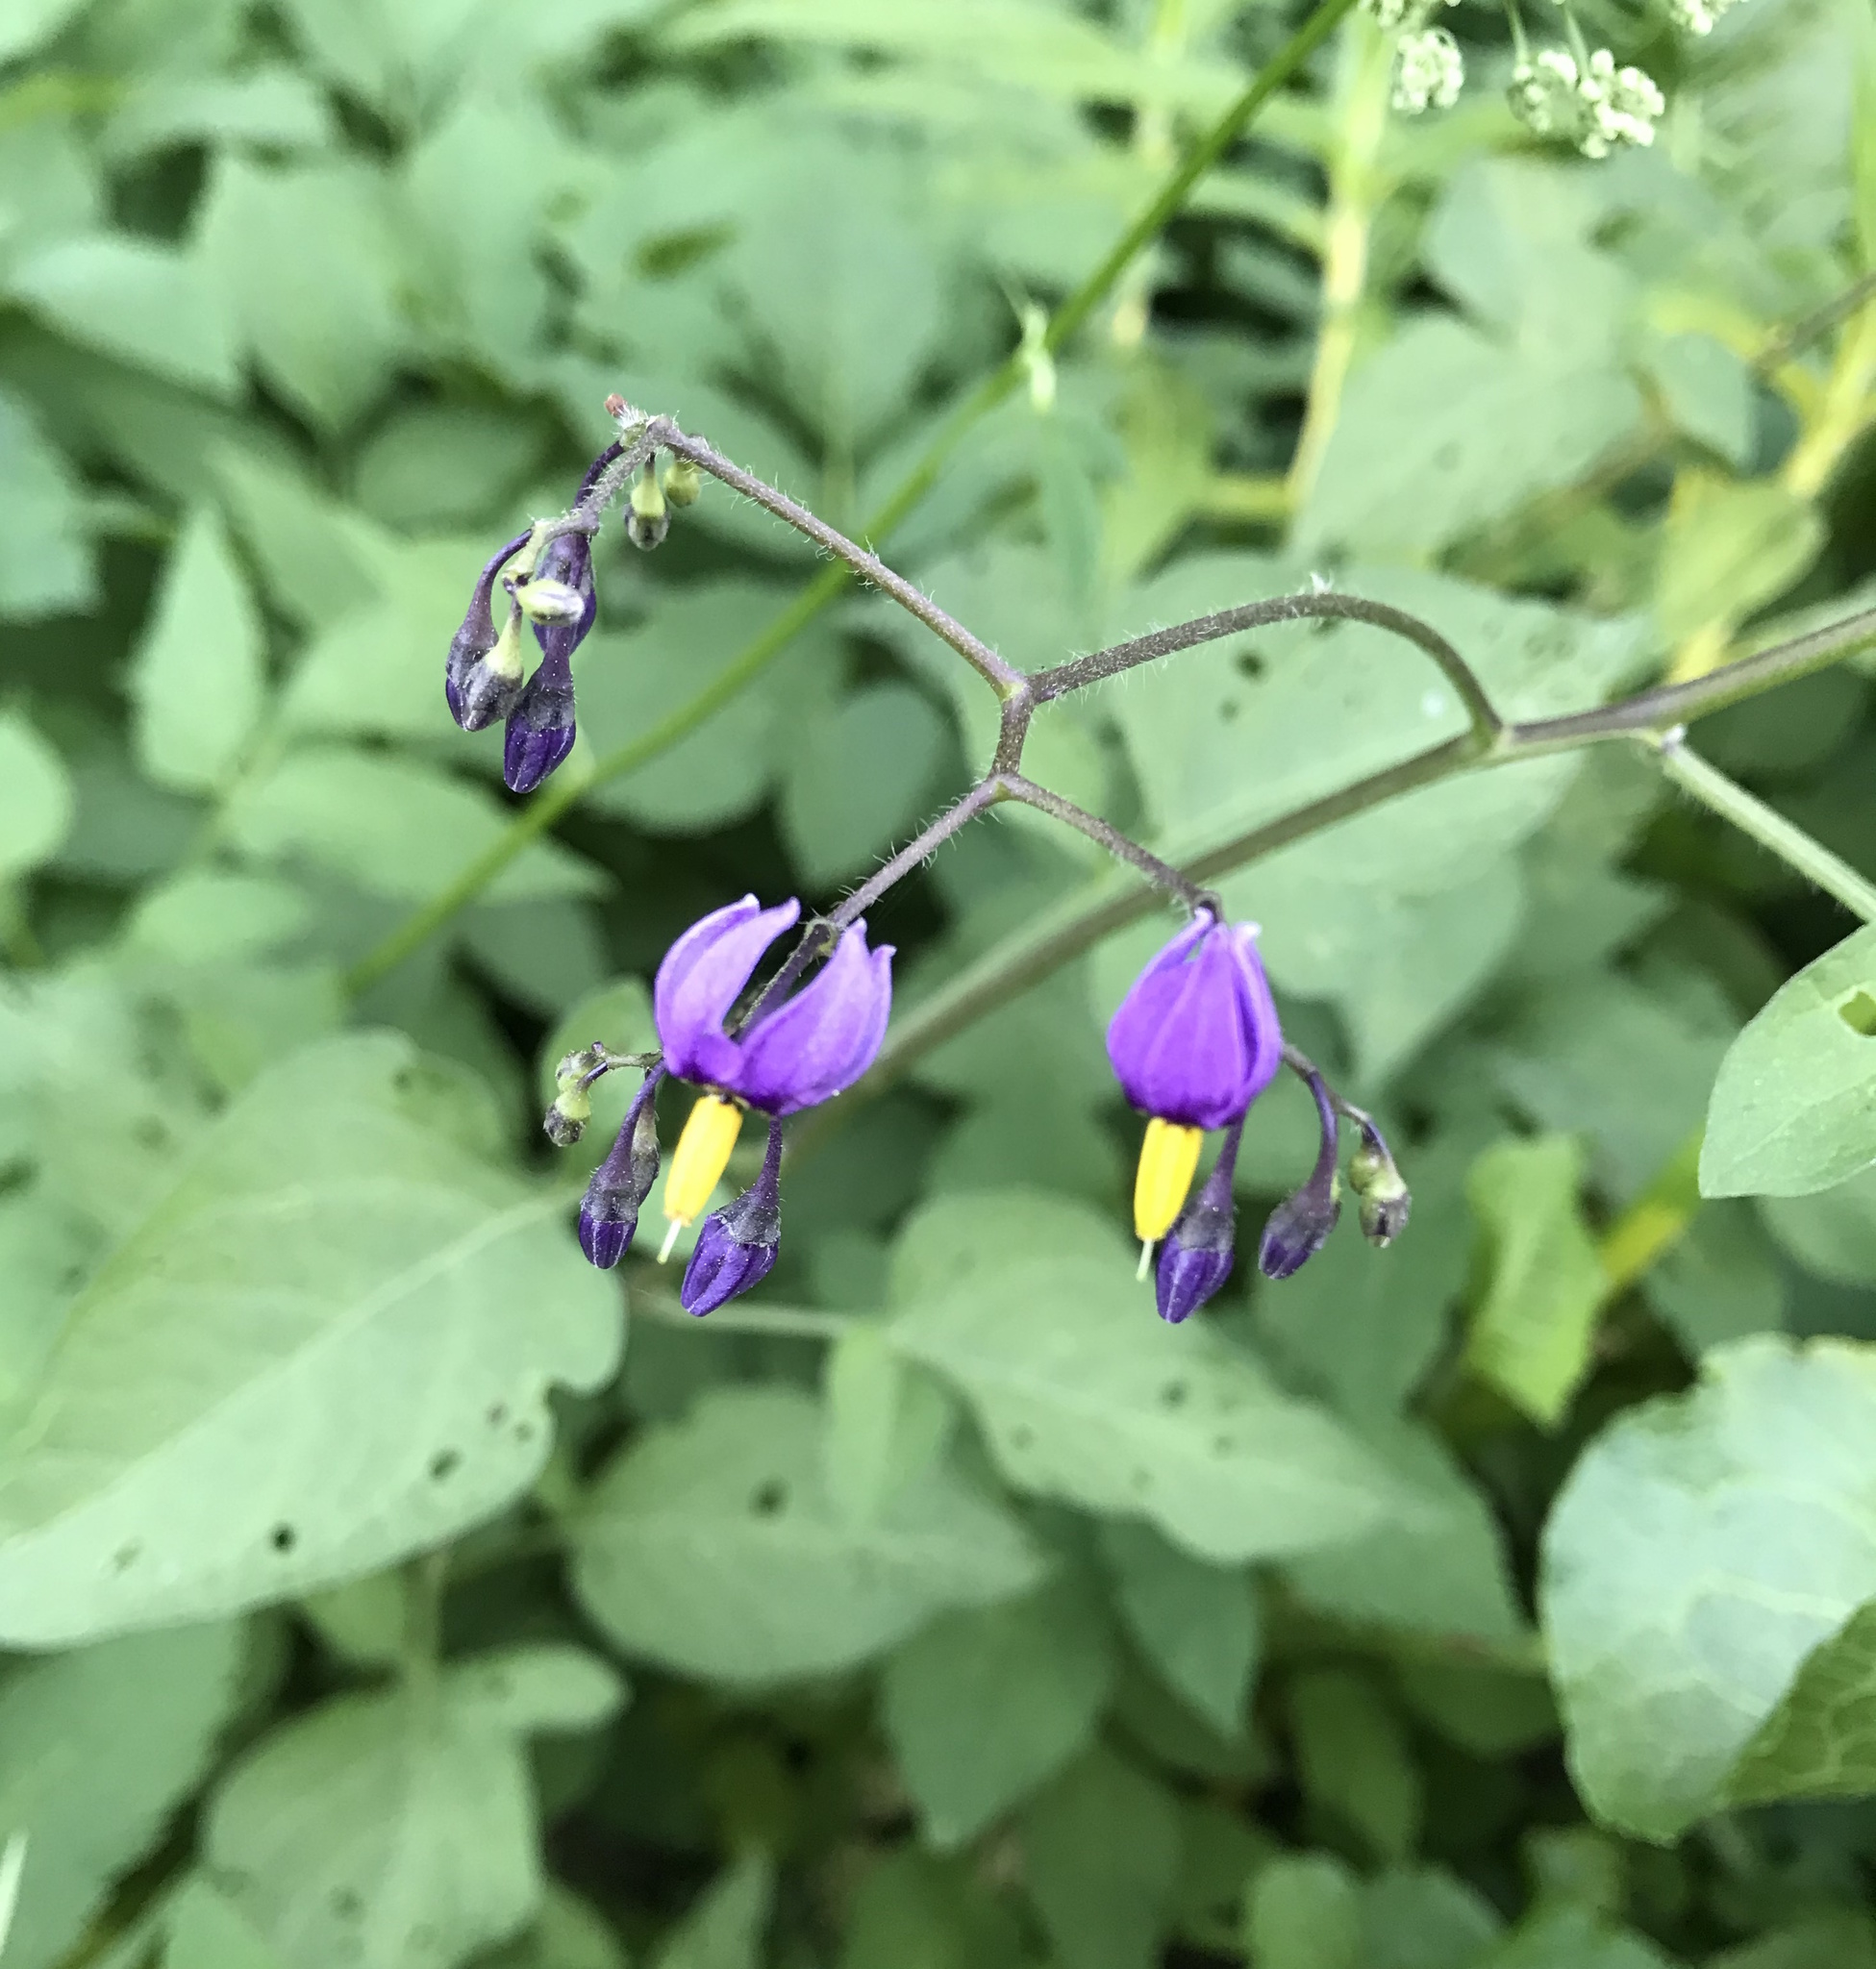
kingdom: Plantae
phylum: Tracheophyta
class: Magnoliopsida
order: Solanales
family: Solanaceae
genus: Solanum
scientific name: Solanum dulcamara
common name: Climbing nightshade
